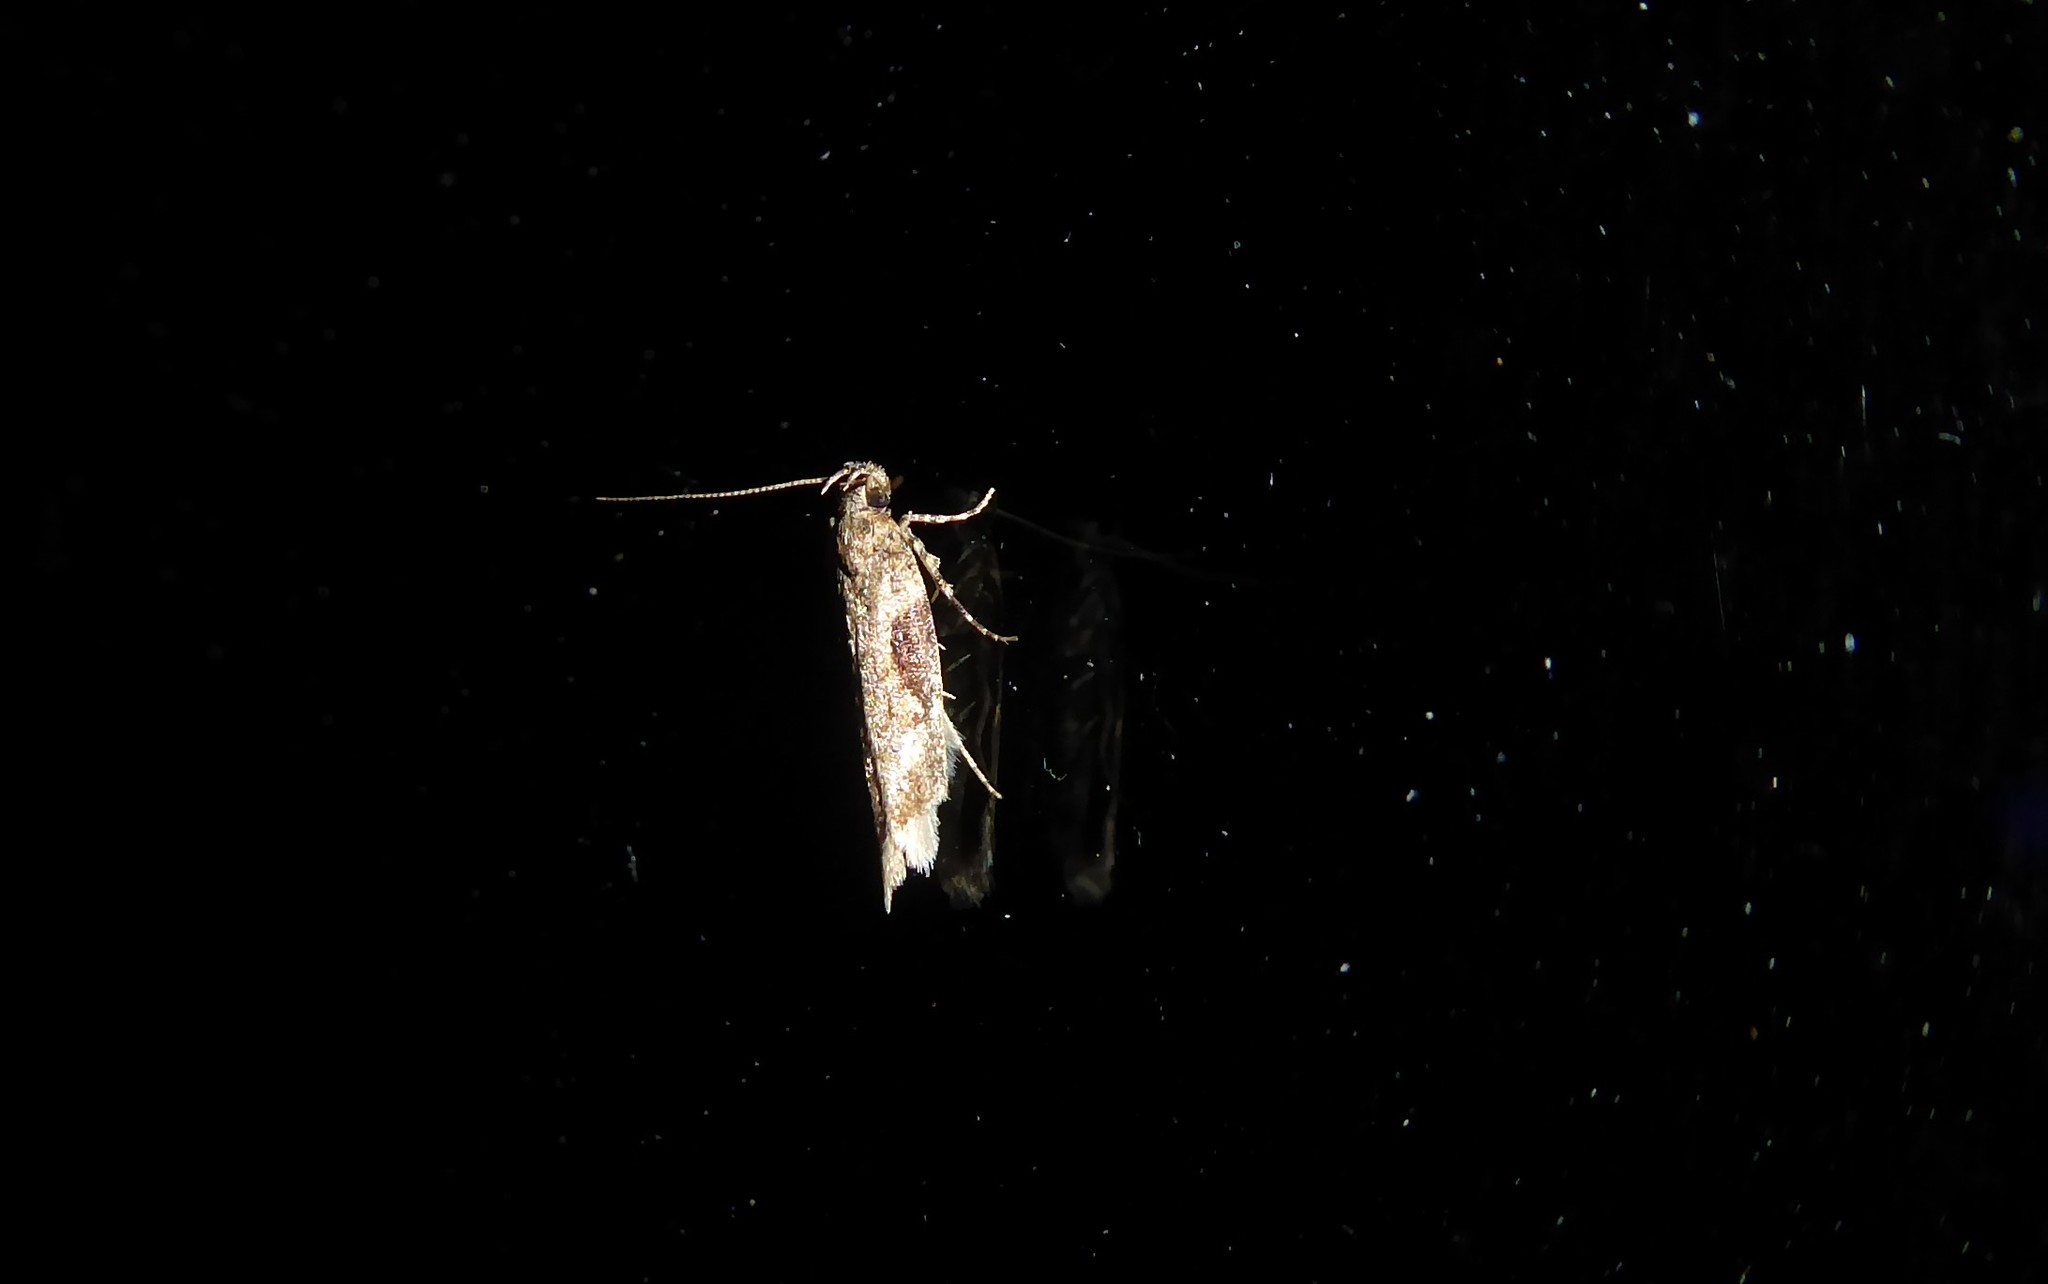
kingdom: Animalia
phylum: Arthropoda
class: Insecta
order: Lepidoptera
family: Gelechiidae
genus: Symmetrischema
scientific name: Symmetrischema tangolias
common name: Moth
